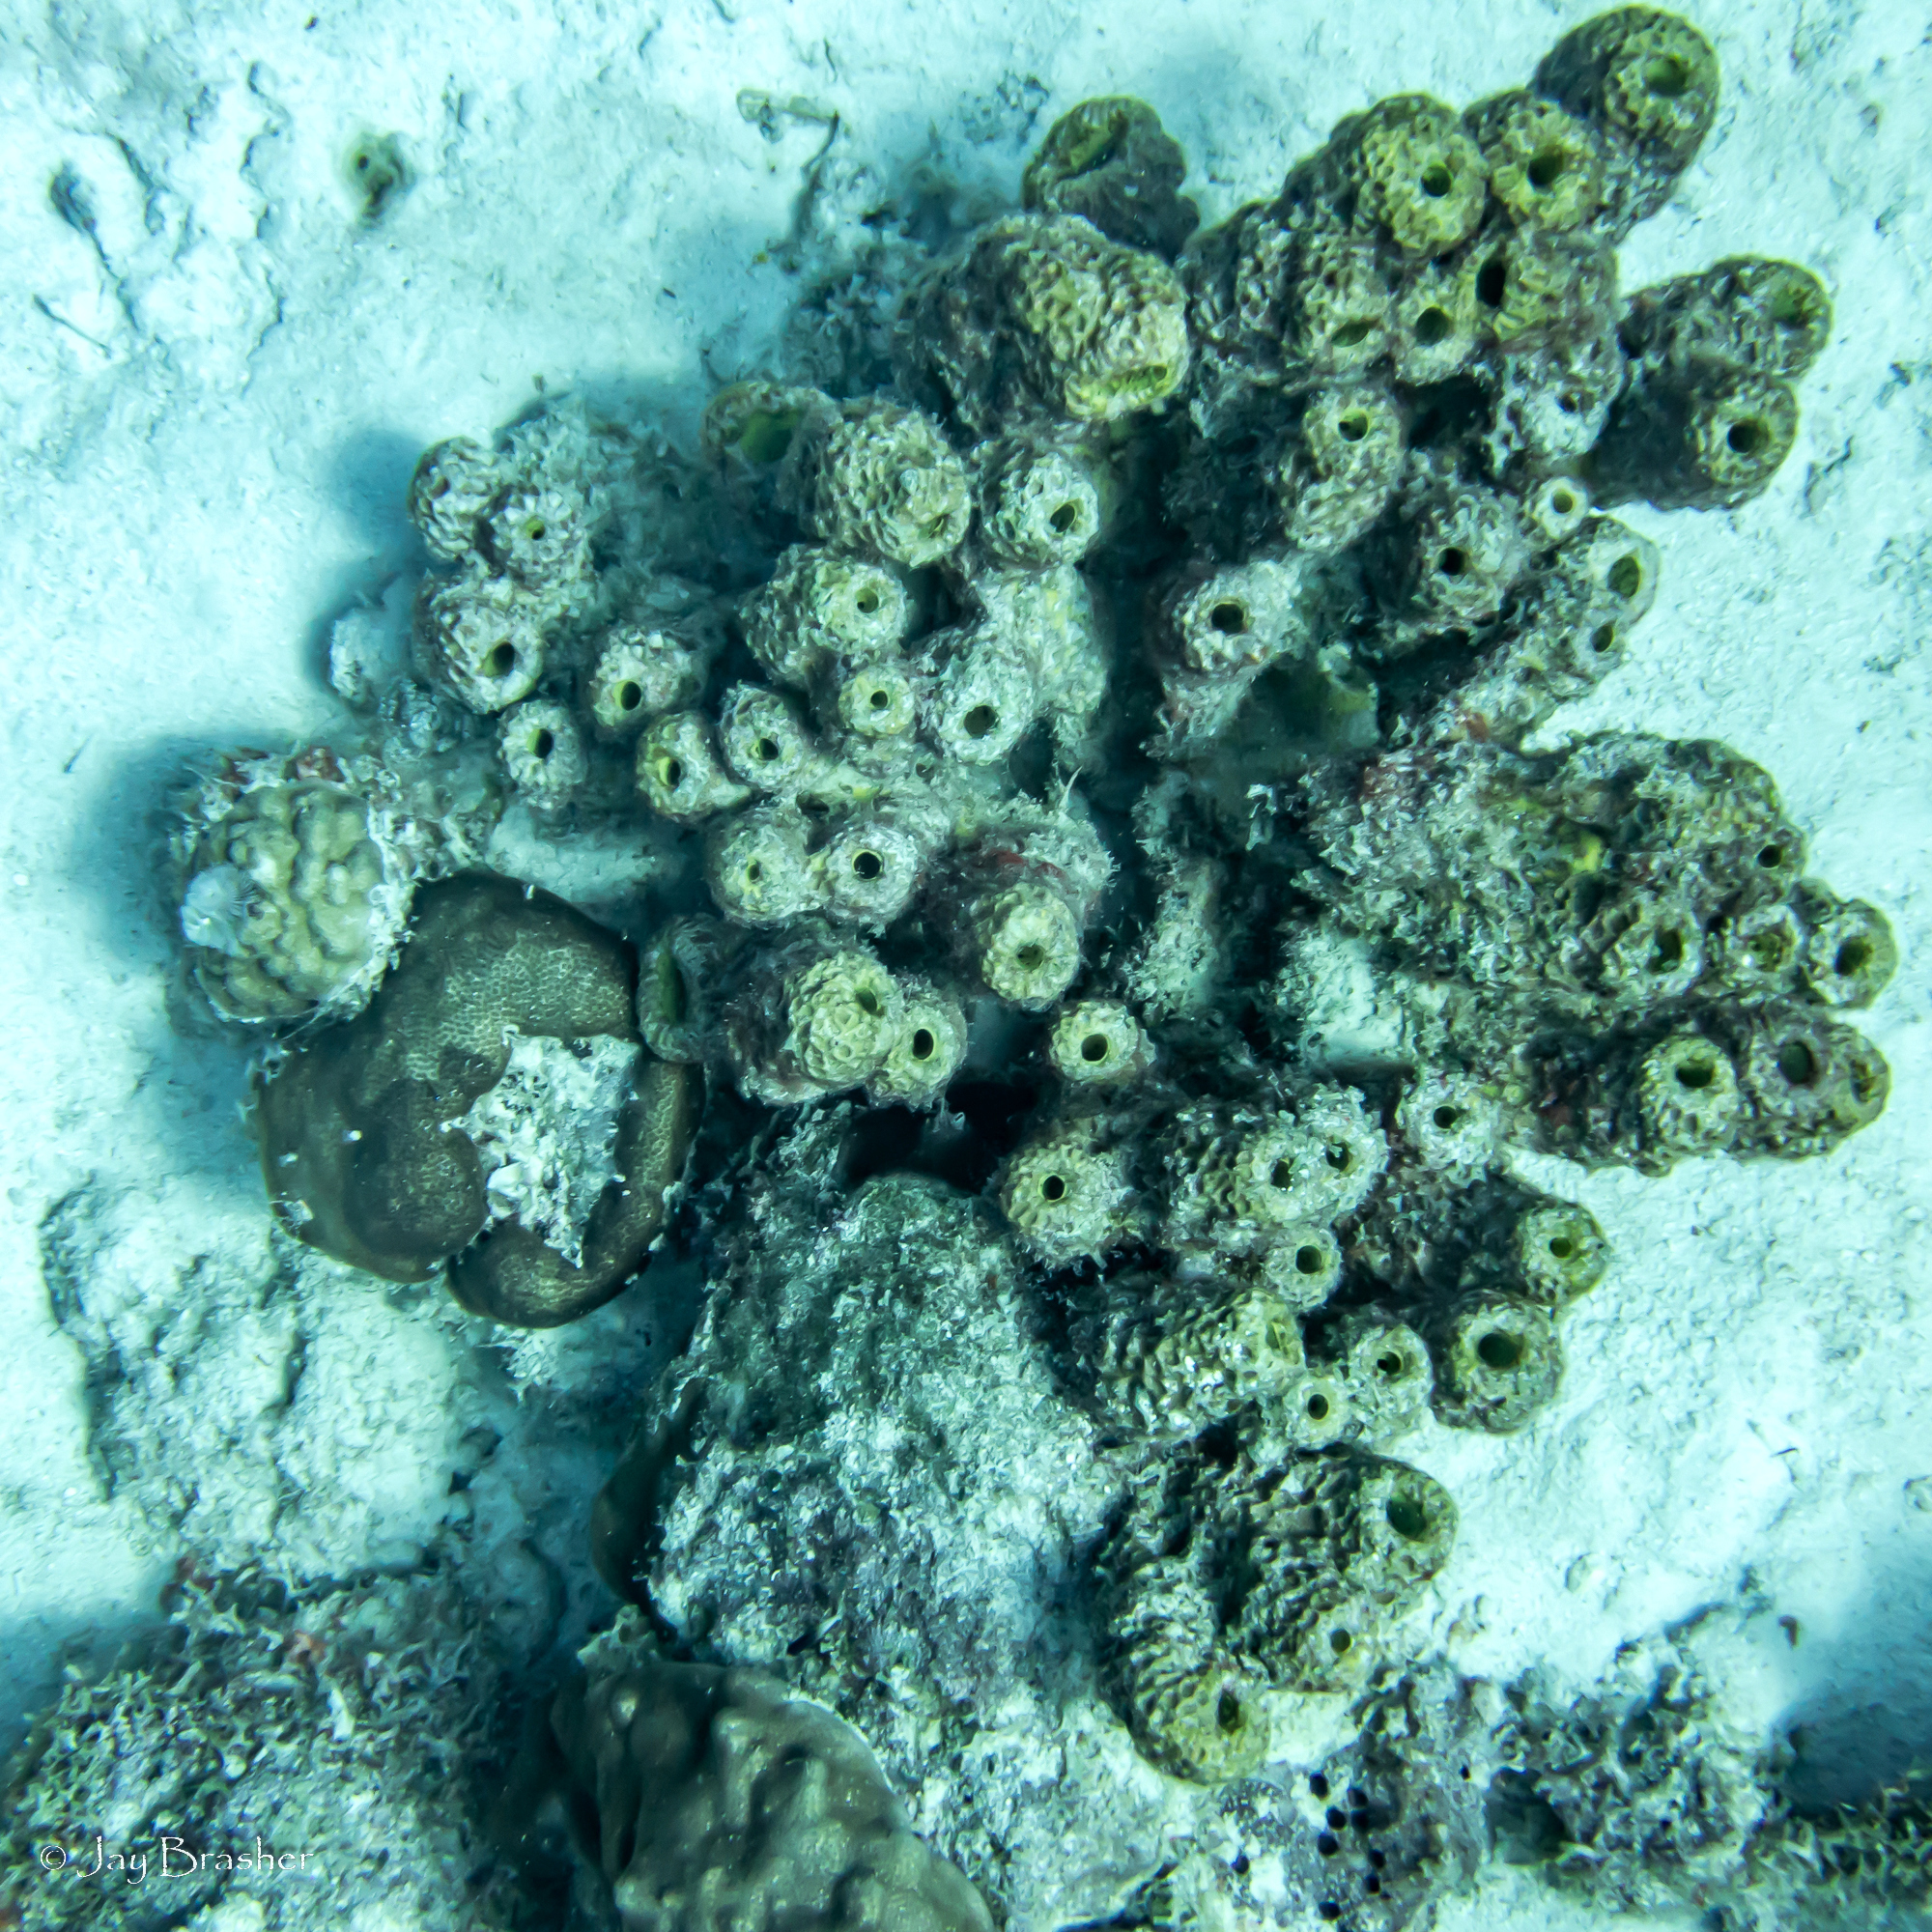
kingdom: Animalia
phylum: Porifera
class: Demospongiae
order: Verongiida
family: Aplysinidae
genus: Verongula
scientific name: Verongula rigida
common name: Pitted sponge
